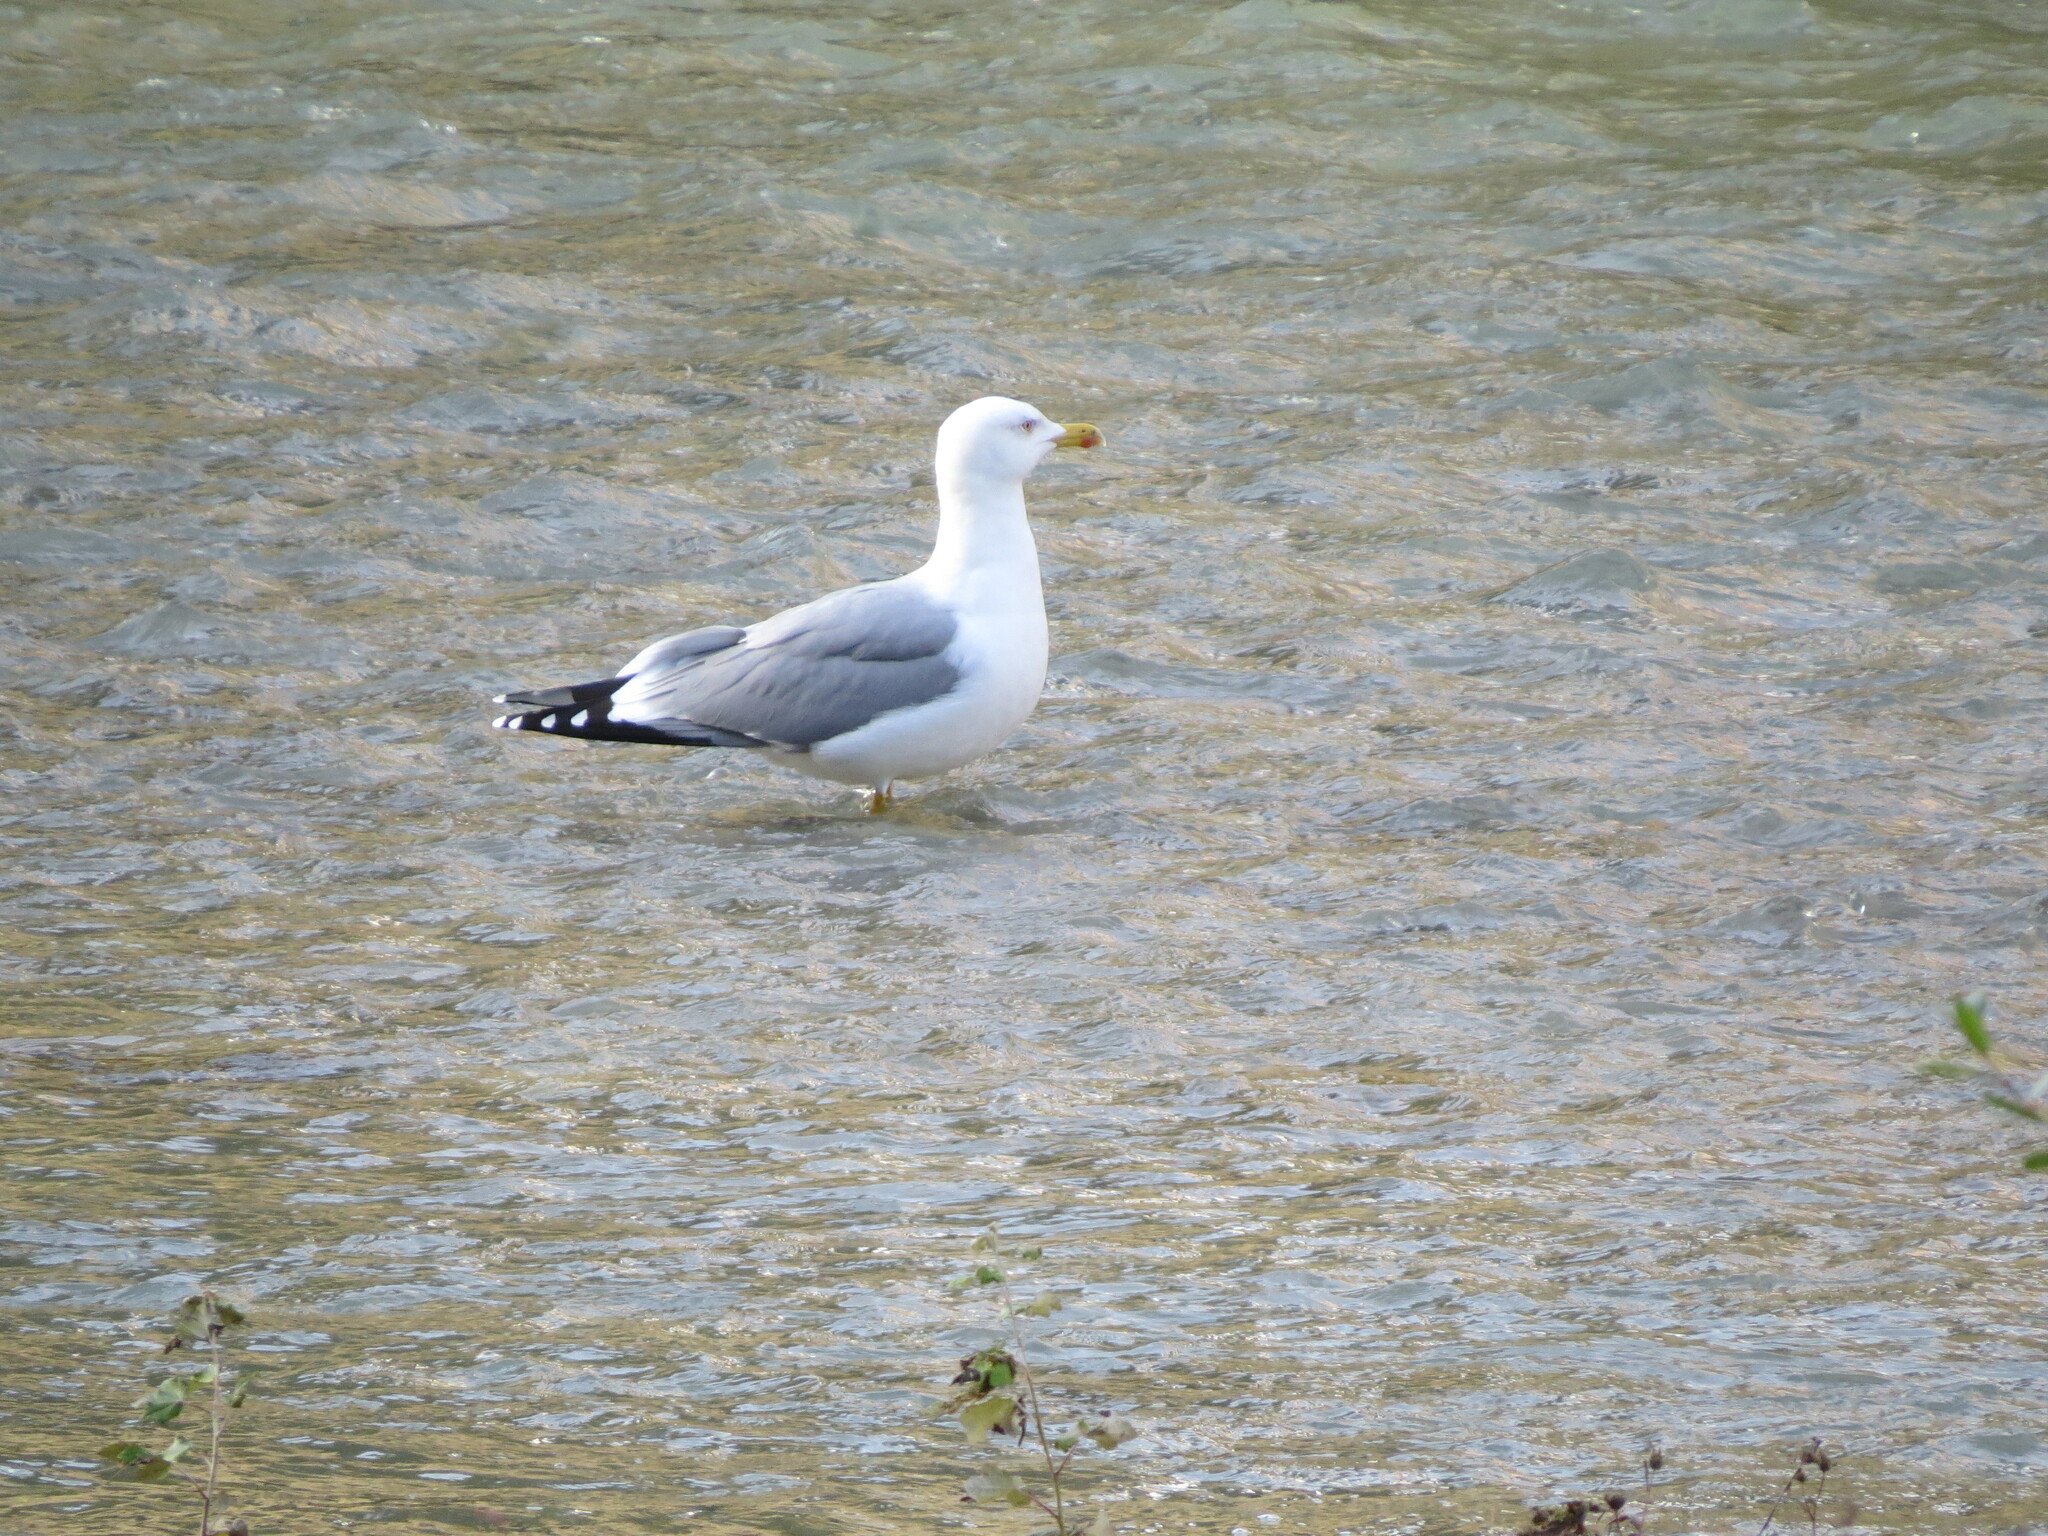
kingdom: Animalia
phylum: Chordata
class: Aves
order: Charadriiformes
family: Laridae
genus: Larus
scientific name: Larus michahellis
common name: Yellow-legged gull
